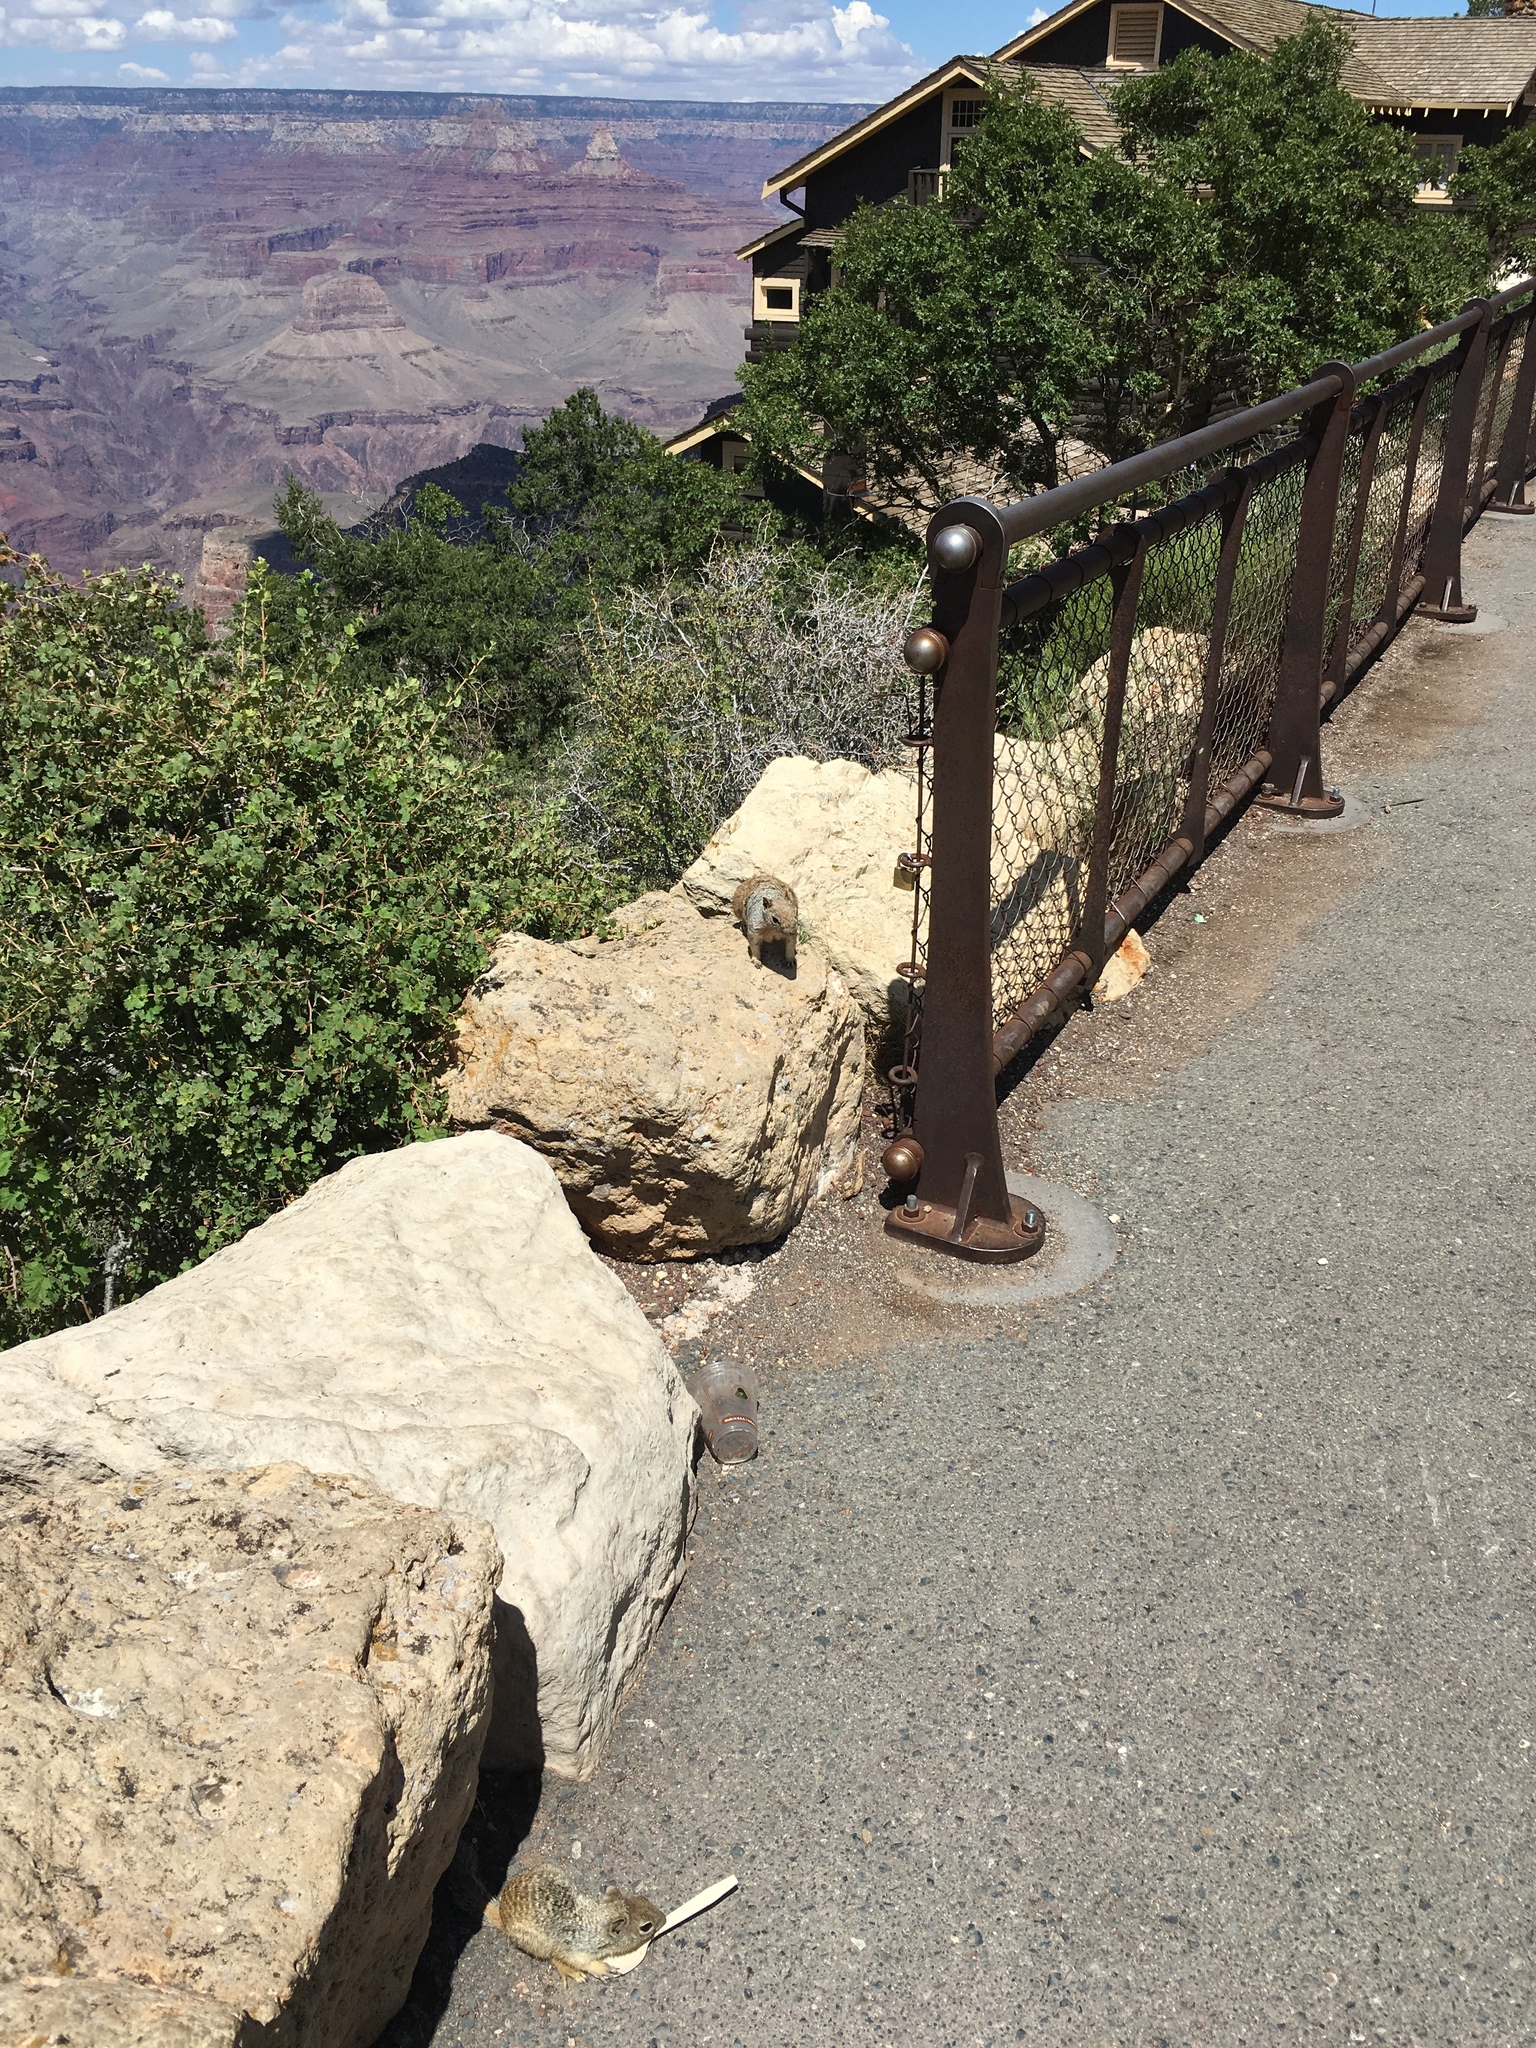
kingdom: Animalia
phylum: Chordata
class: Mammalia
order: Rodentia
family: Sciuridae
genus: Otospermophilus
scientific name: Otospermophilus variegatus
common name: Rock squirrel
